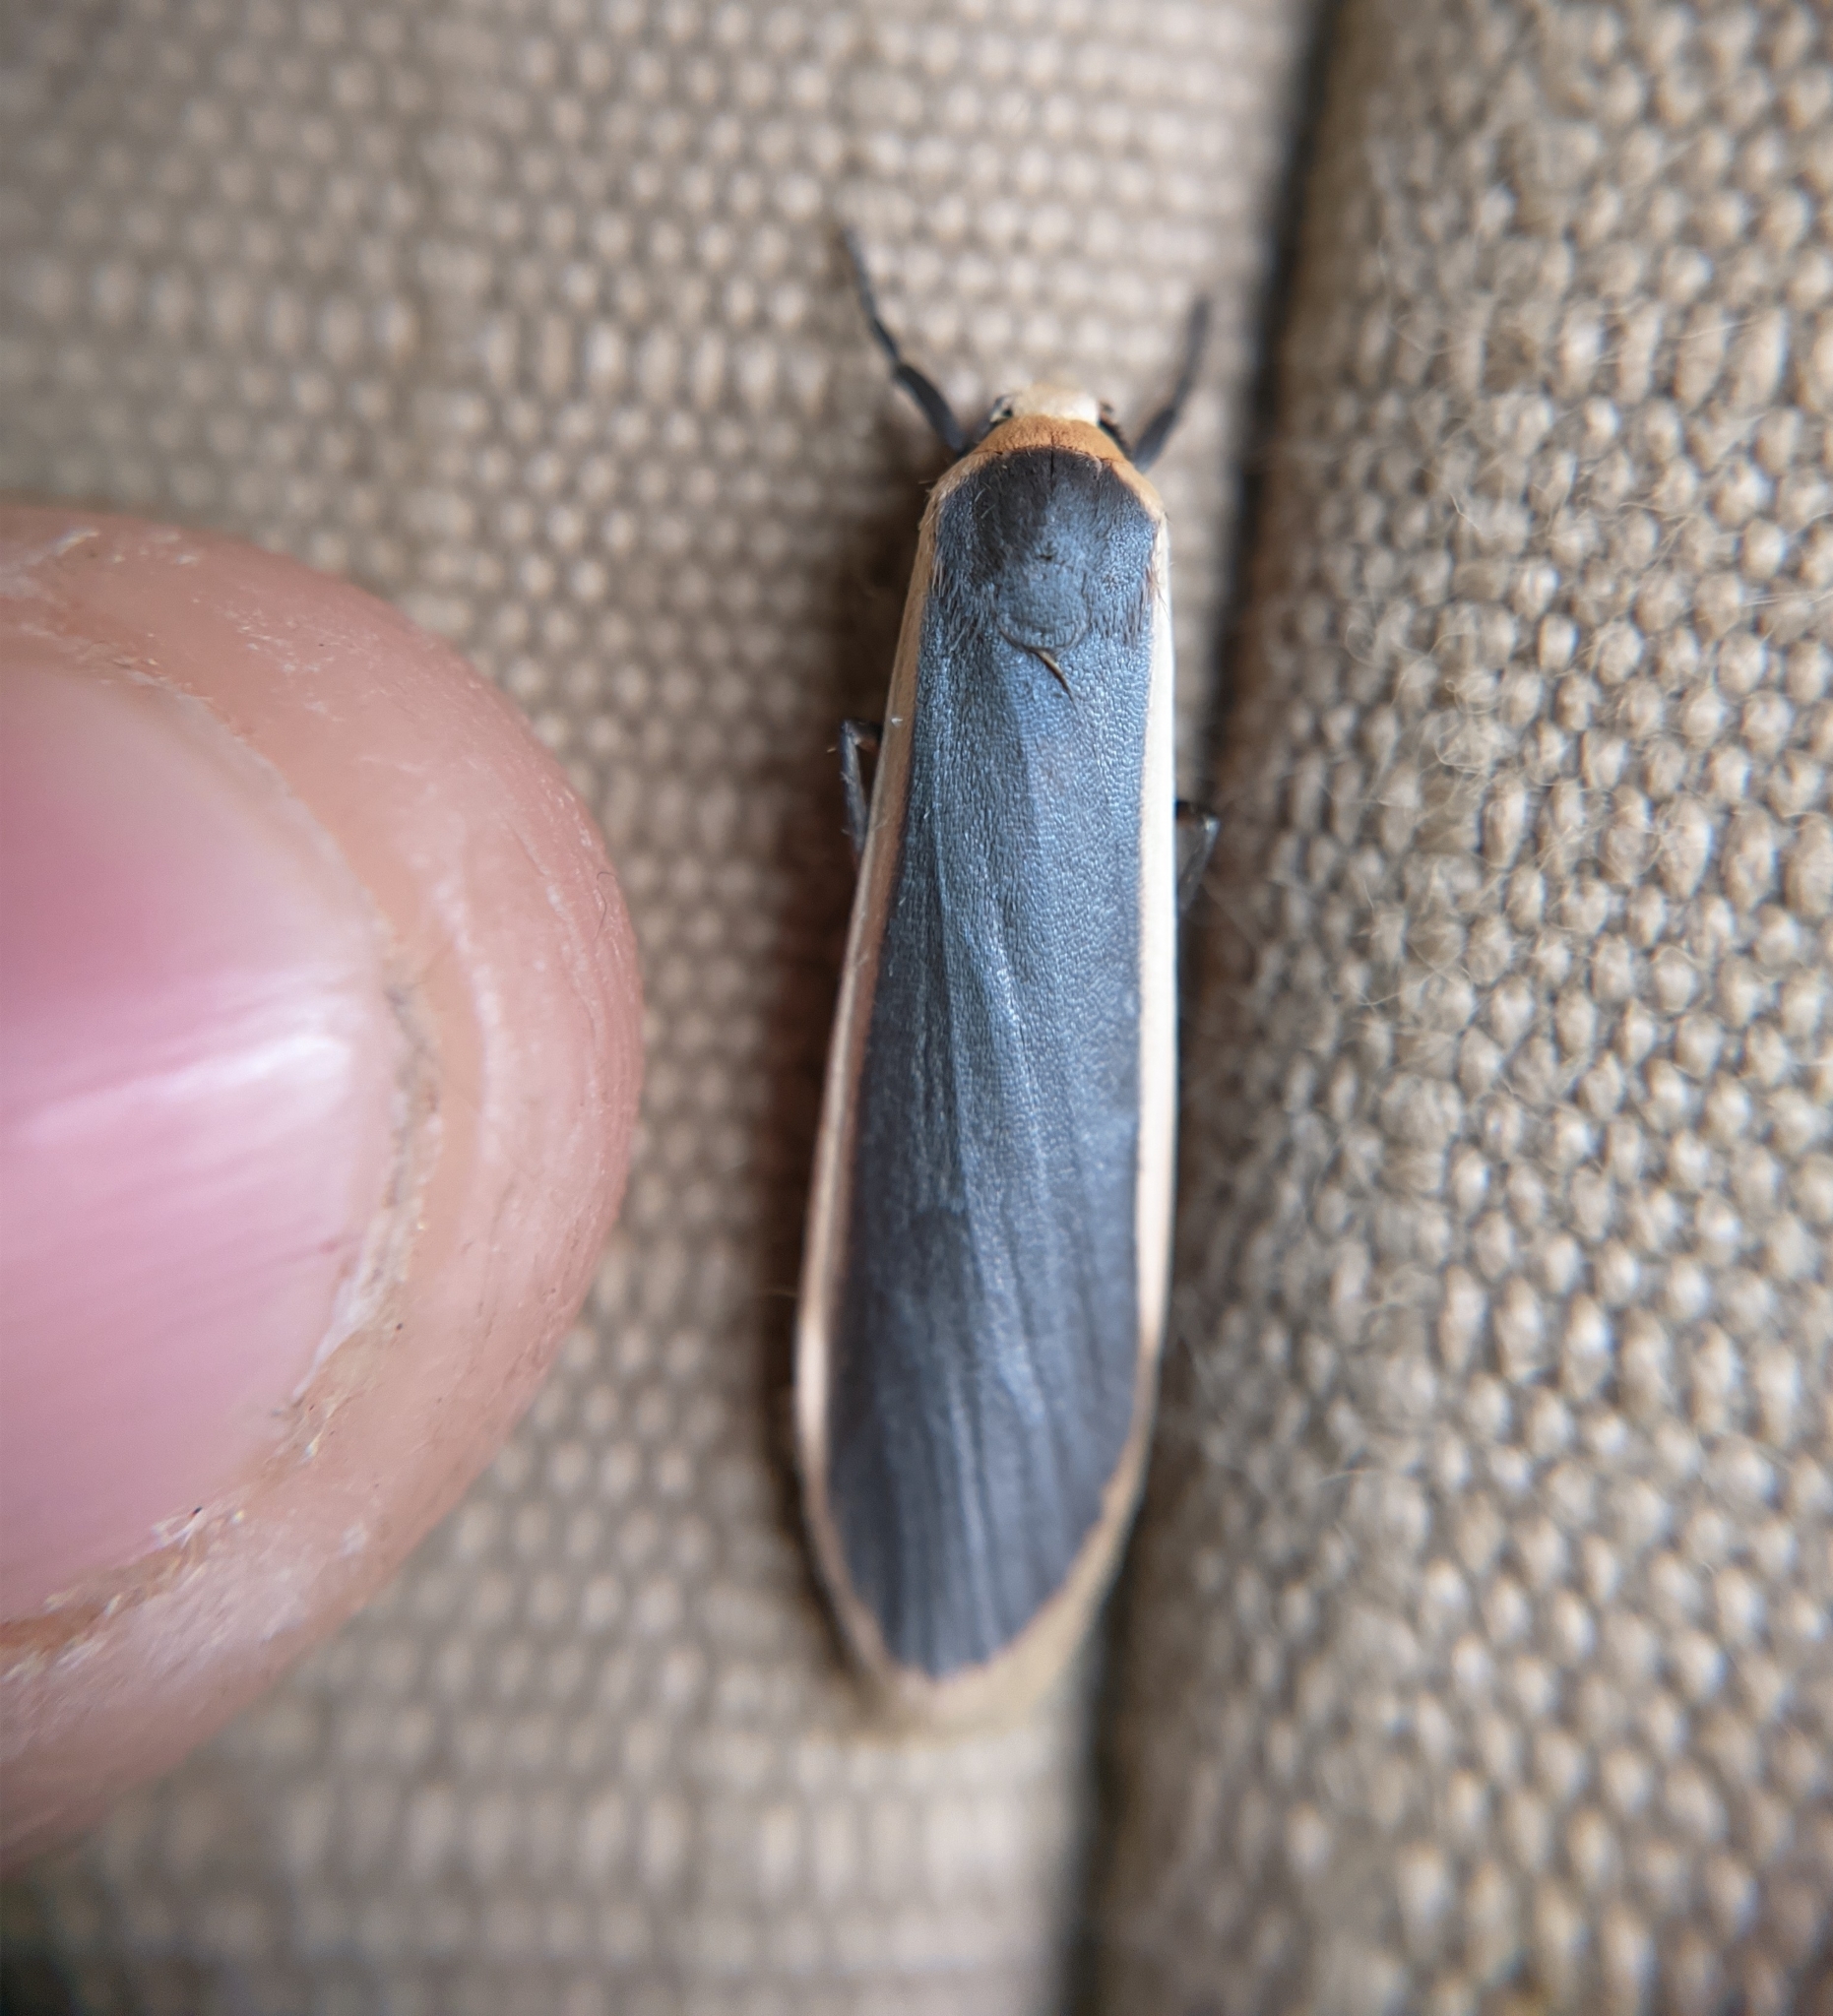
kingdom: Animalia
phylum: Arthropoda
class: Insecta
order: Lepidoptera
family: Erebidae
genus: Brunia
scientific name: Brunia antica
